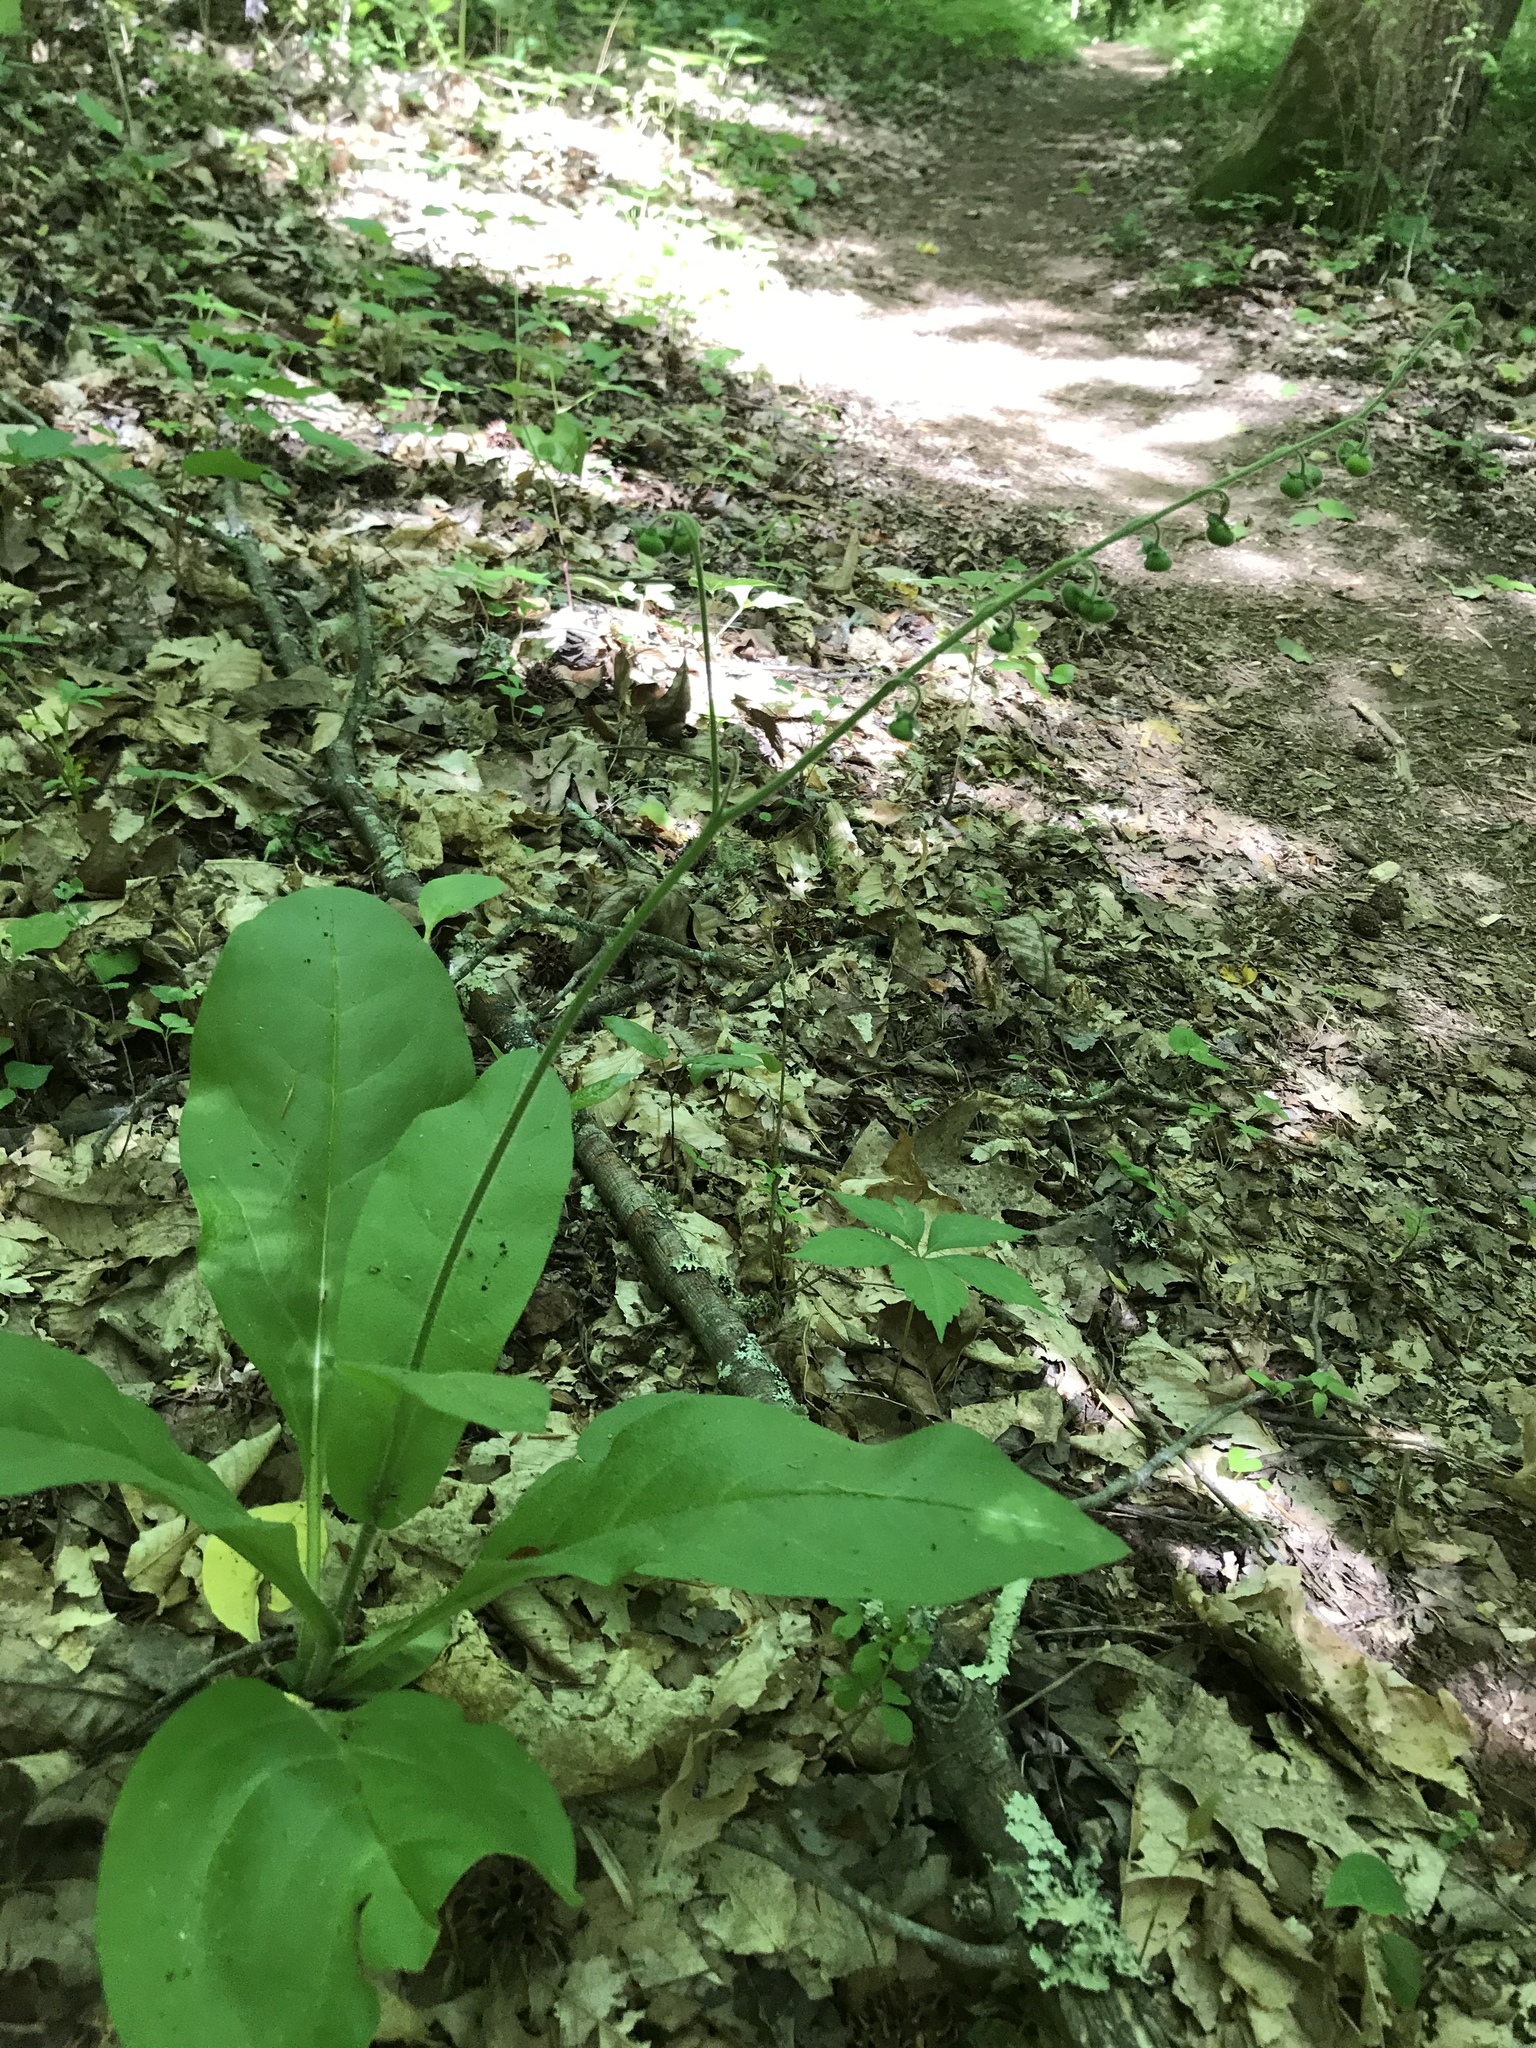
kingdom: Plantae
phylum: Tracheophyta
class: Magnoliopsida
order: Boraginales
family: Boraginaceae
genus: Andersonglossum
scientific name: Andersonglossum virginianum
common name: Wild comfrey
